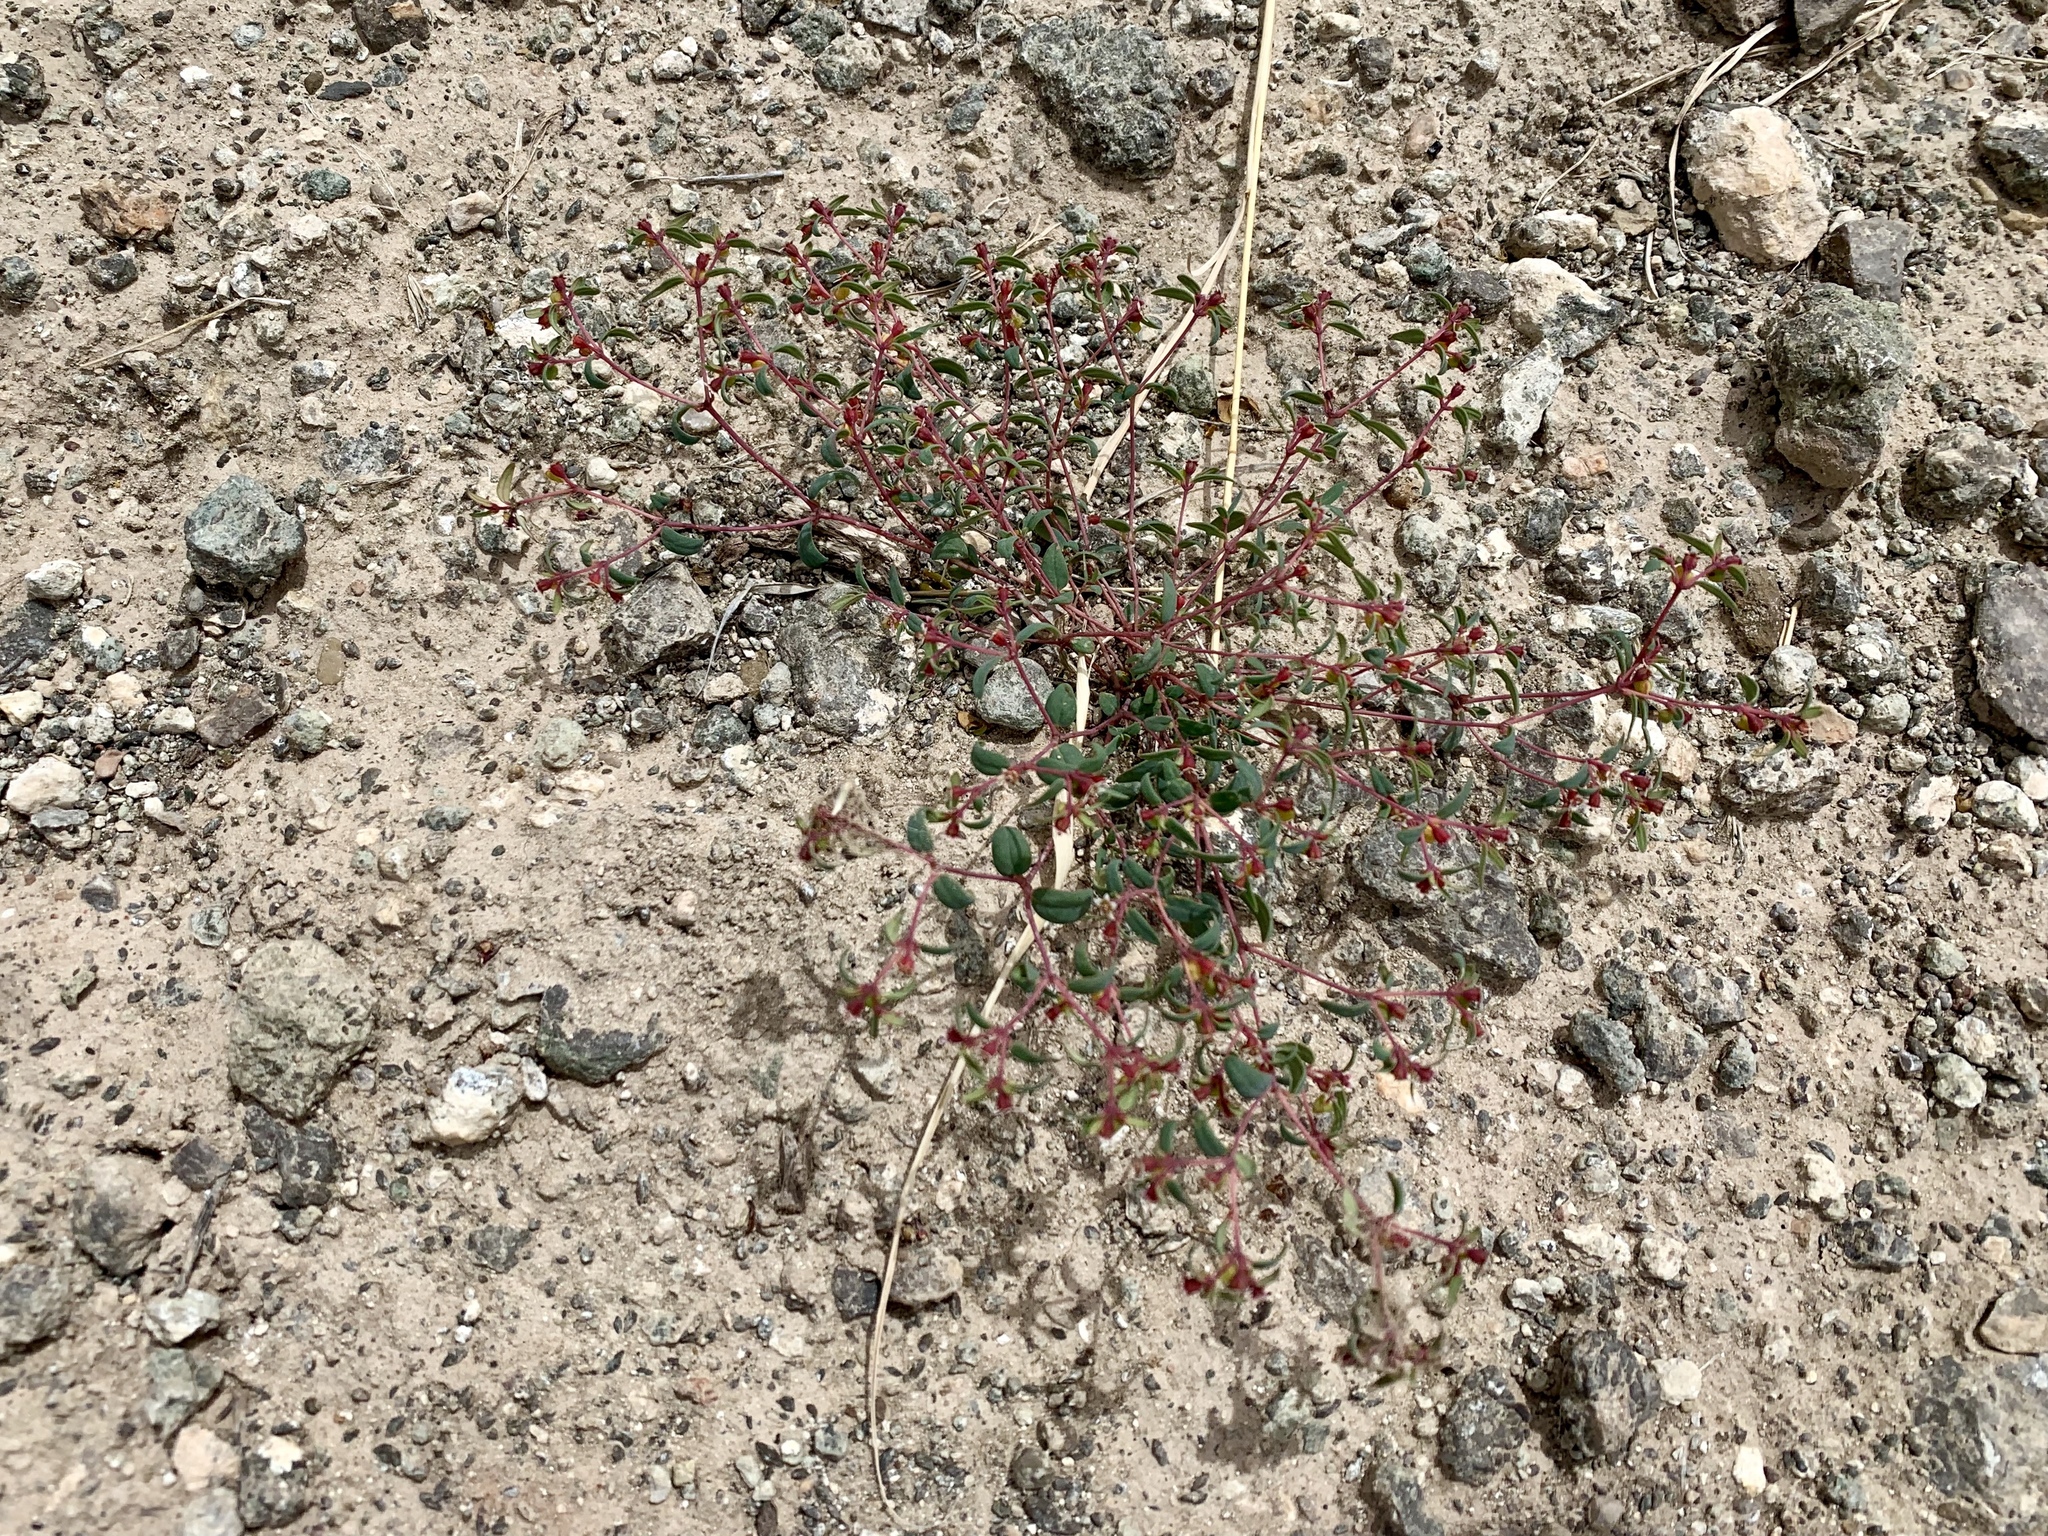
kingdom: Plantae
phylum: Tracheophyta
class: Magnoliopsida
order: Malpighiales
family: Euphorbiaceae
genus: Euphorbia
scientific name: Euphorbia fendleri
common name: Fendler's euphorbia
